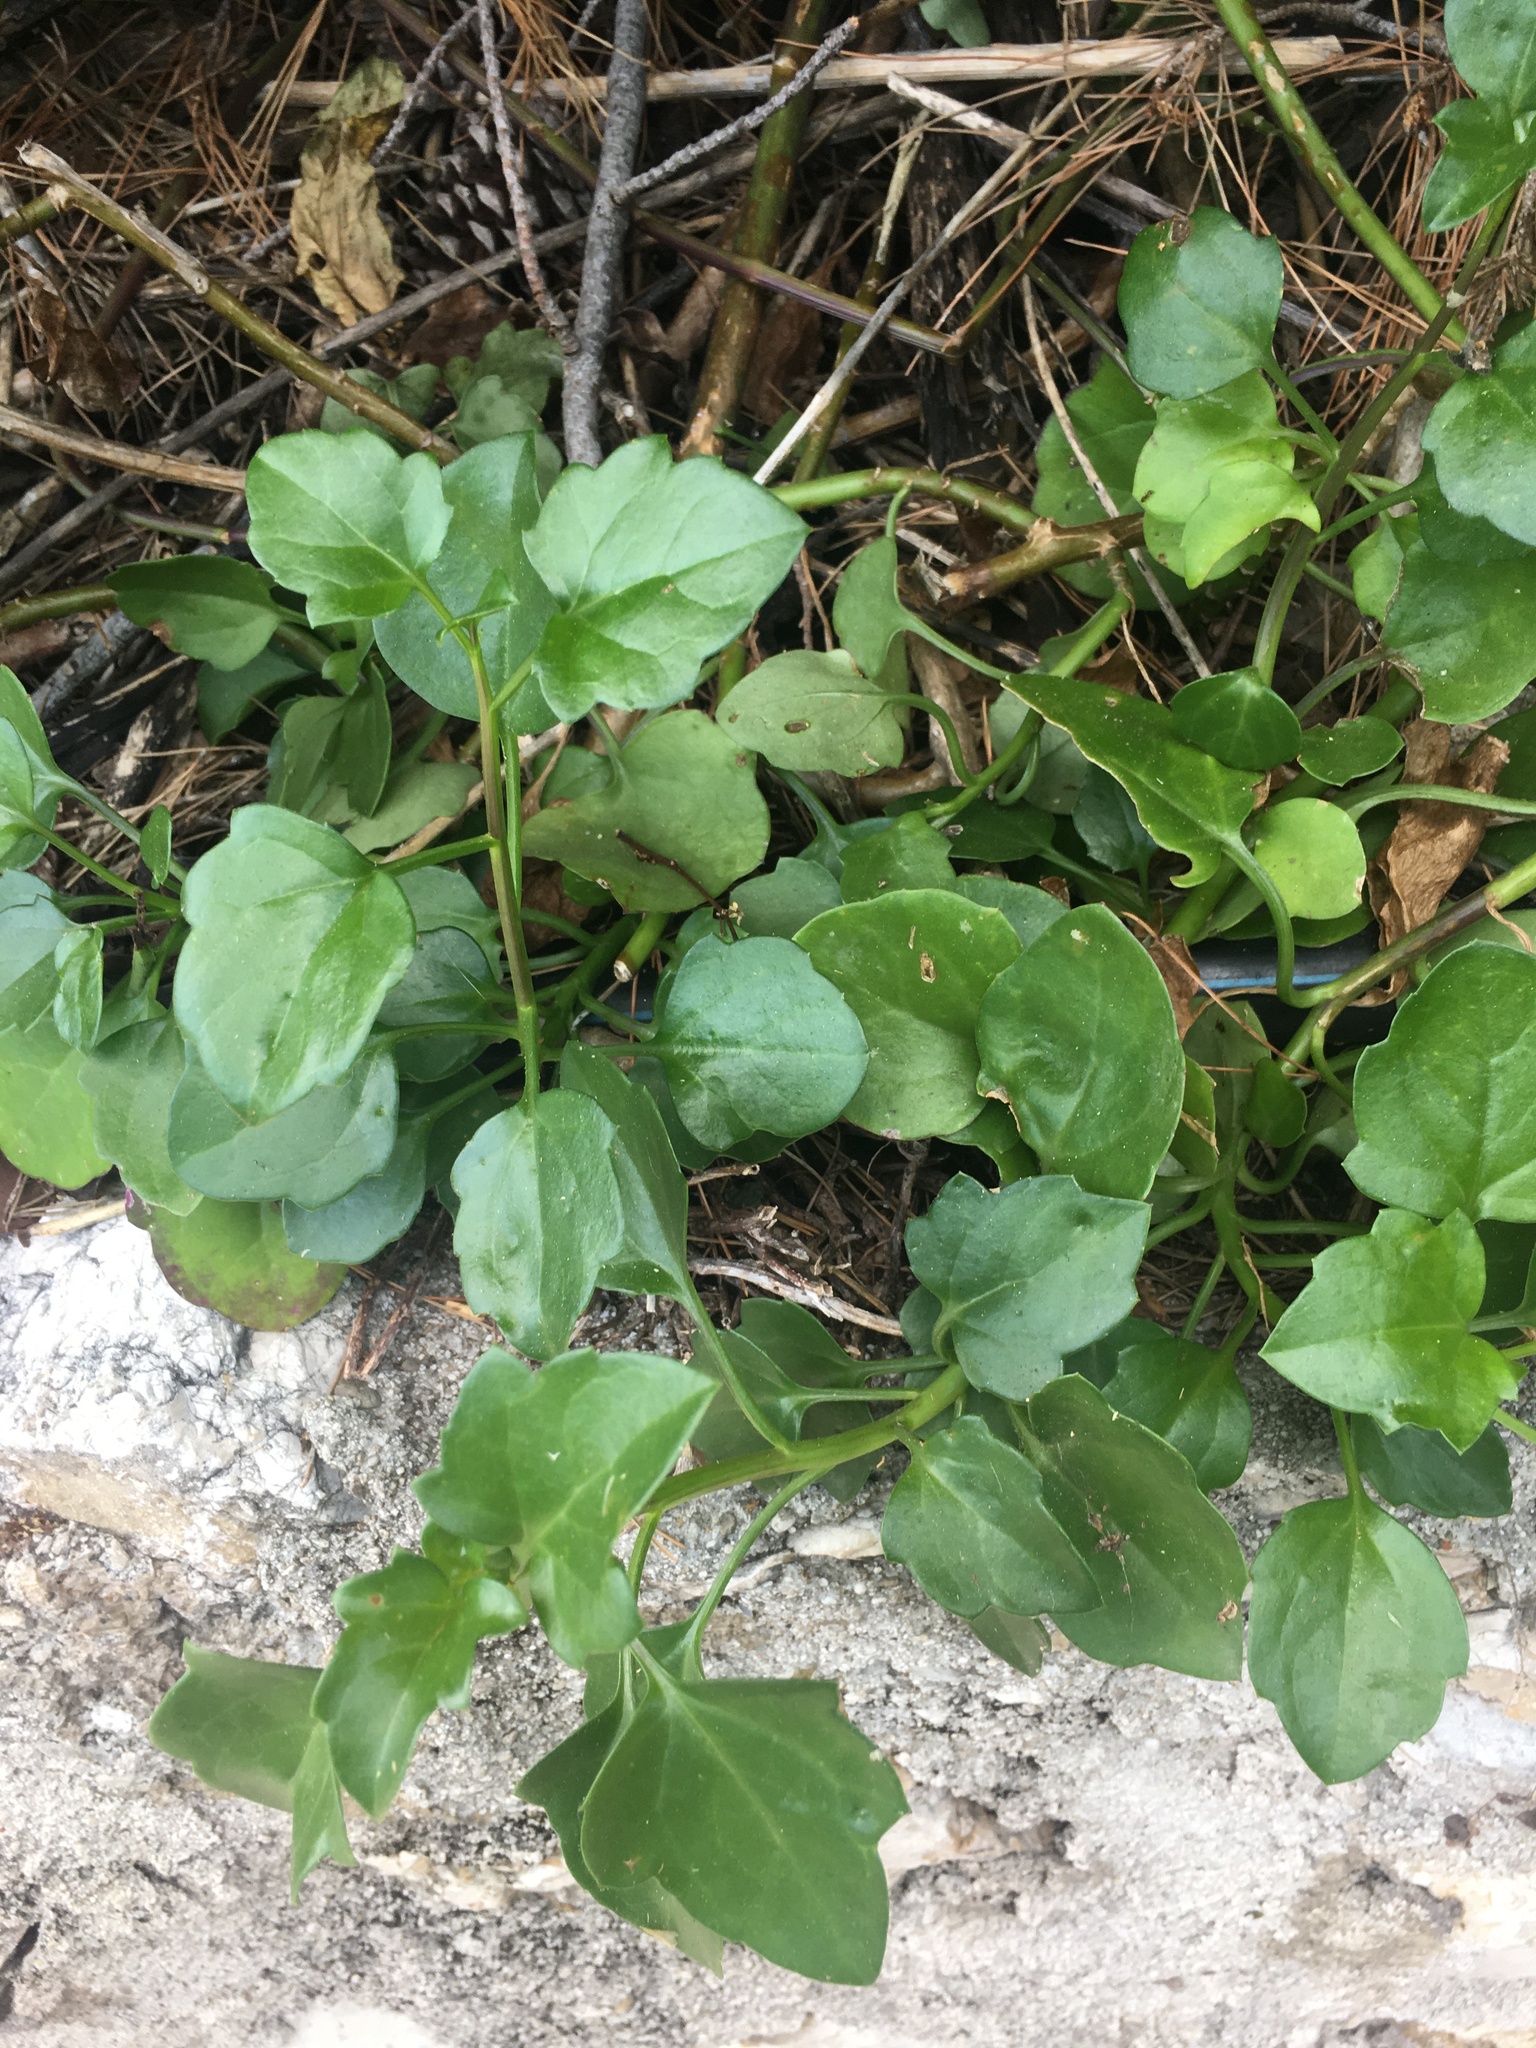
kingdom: Plantae
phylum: Tracheophyta
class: Magnoliopsida
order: Asterales
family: Asteraceae
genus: Senecio
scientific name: Senecio angulatus
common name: Climbing groundsel
